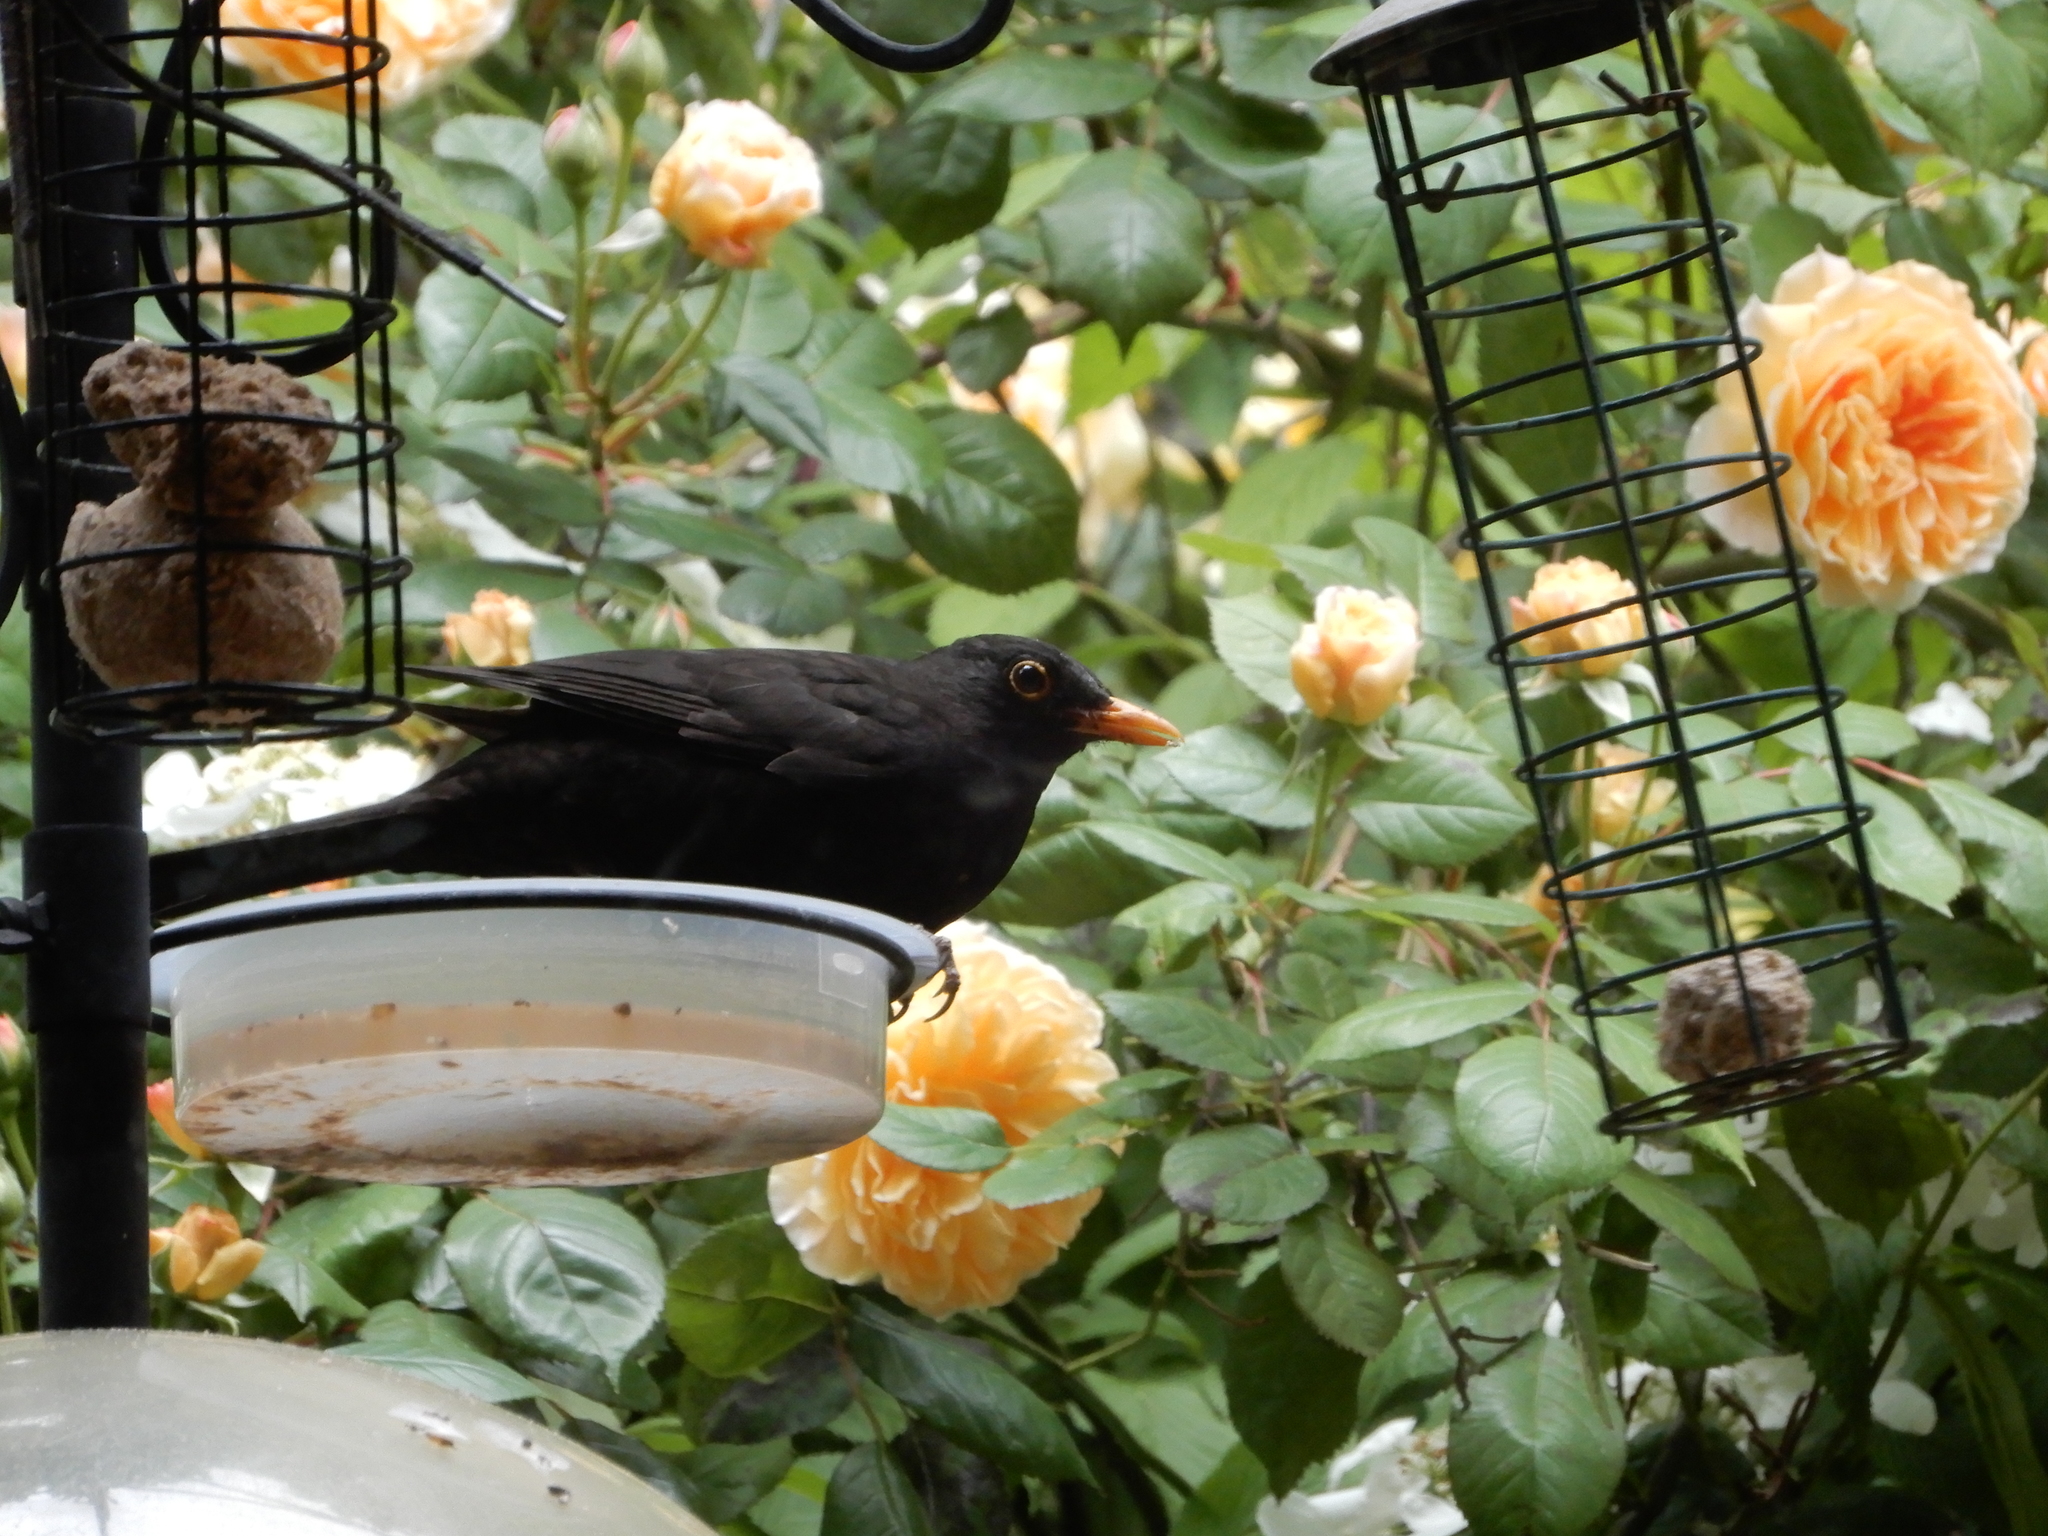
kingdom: Animalia
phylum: Chordata
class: Aves
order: Passeriformes
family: Turdidae
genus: Turdus
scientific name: Turdus merula
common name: Common blackbird
